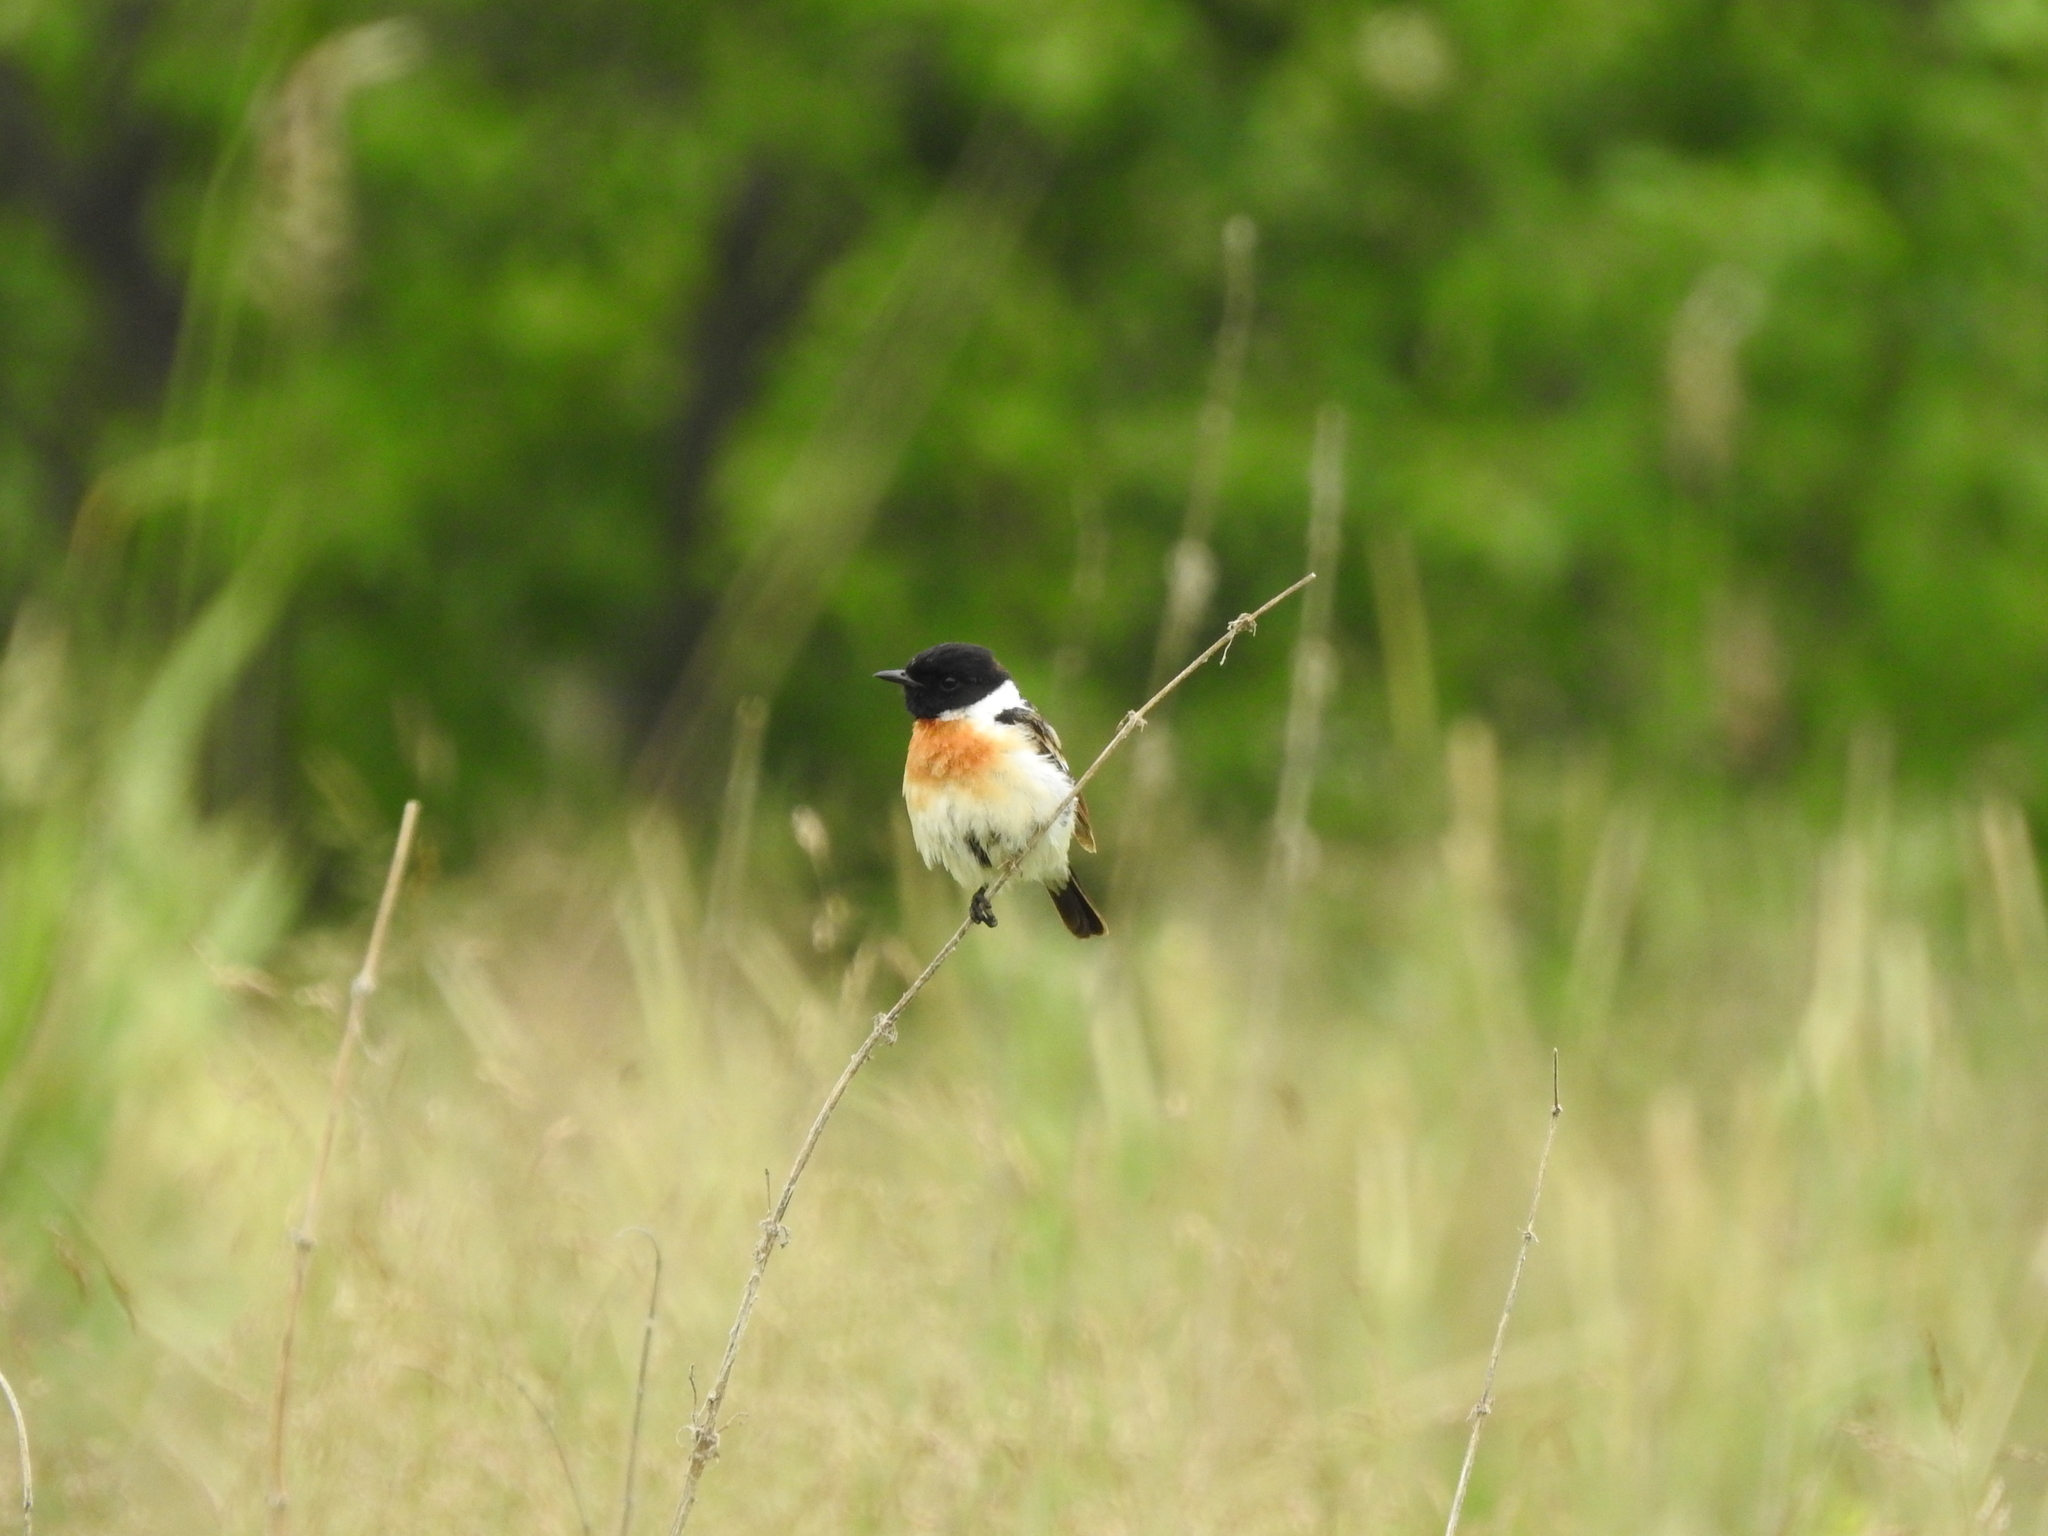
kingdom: Animalia
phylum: Chordata
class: Aves
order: Passeriformes
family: Muscicapidae
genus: Saxicola
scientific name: Saxicola maurus
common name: Siberian stonechat
